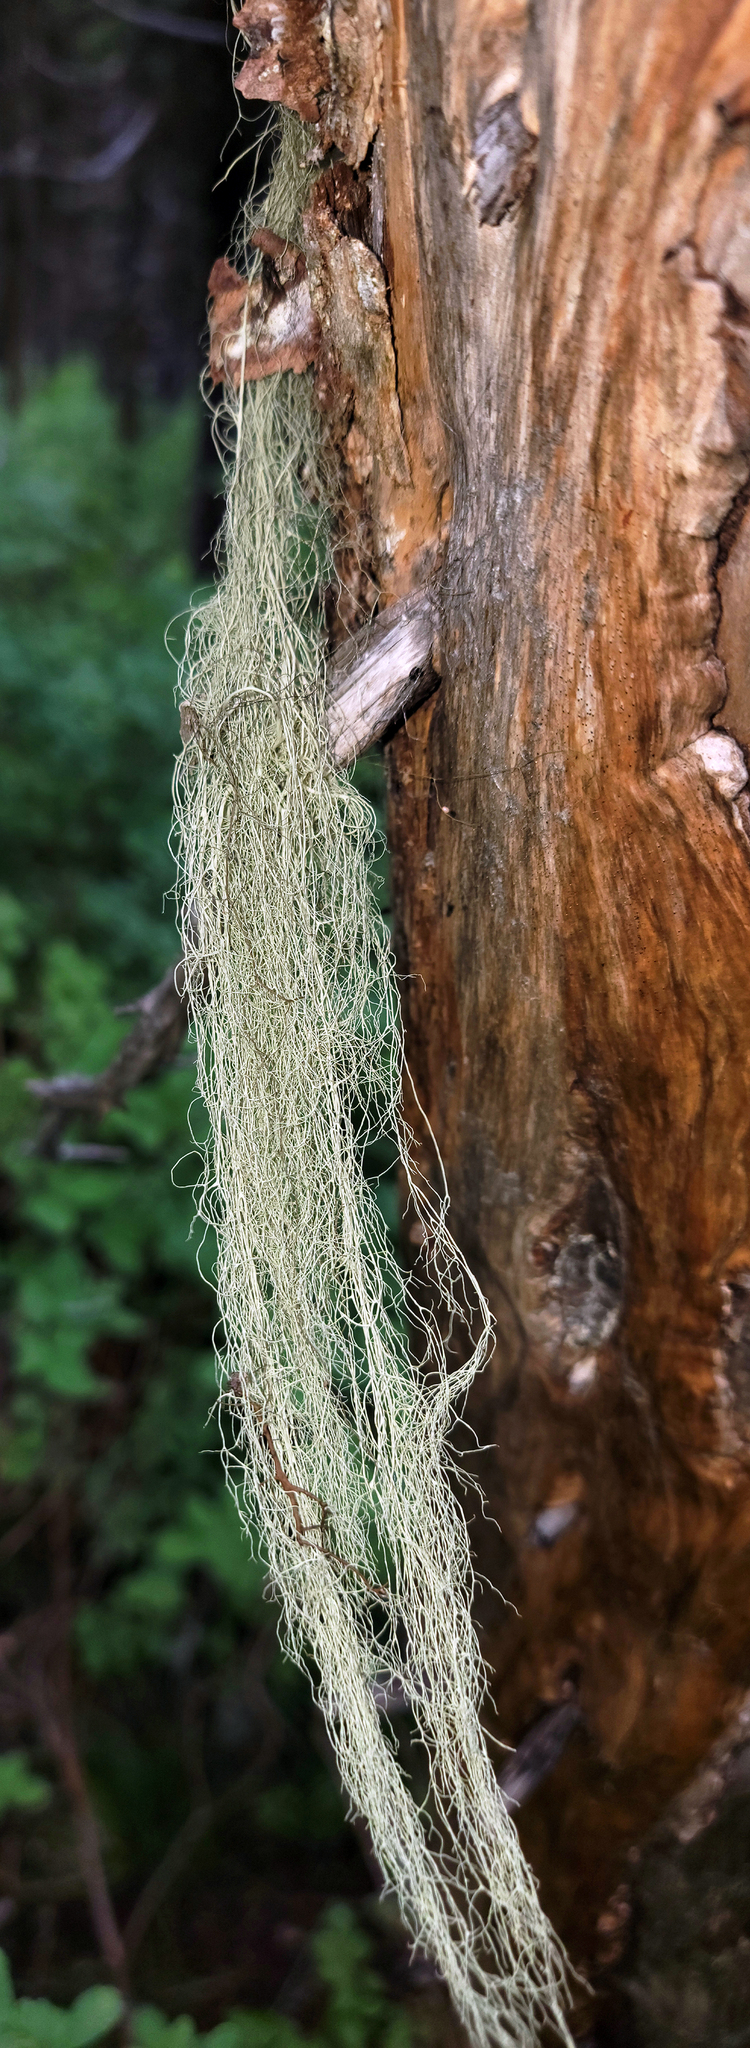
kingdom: Fungi
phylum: Ascomycota
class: Lecanoromycetes
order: Lecanorales
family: Parmeliaceae
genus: Alectoria
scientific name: Alectoria sarmentosa
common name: Witch's hair
